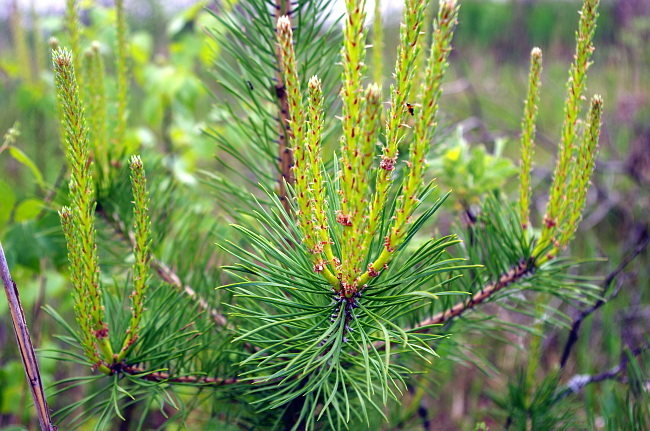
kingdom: Plantae
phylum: Tracheophyta
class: Pinopsida
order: Pinales
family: Pinaceae
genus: Pinus
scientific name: Pinus sylvestris
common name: Scots pine
